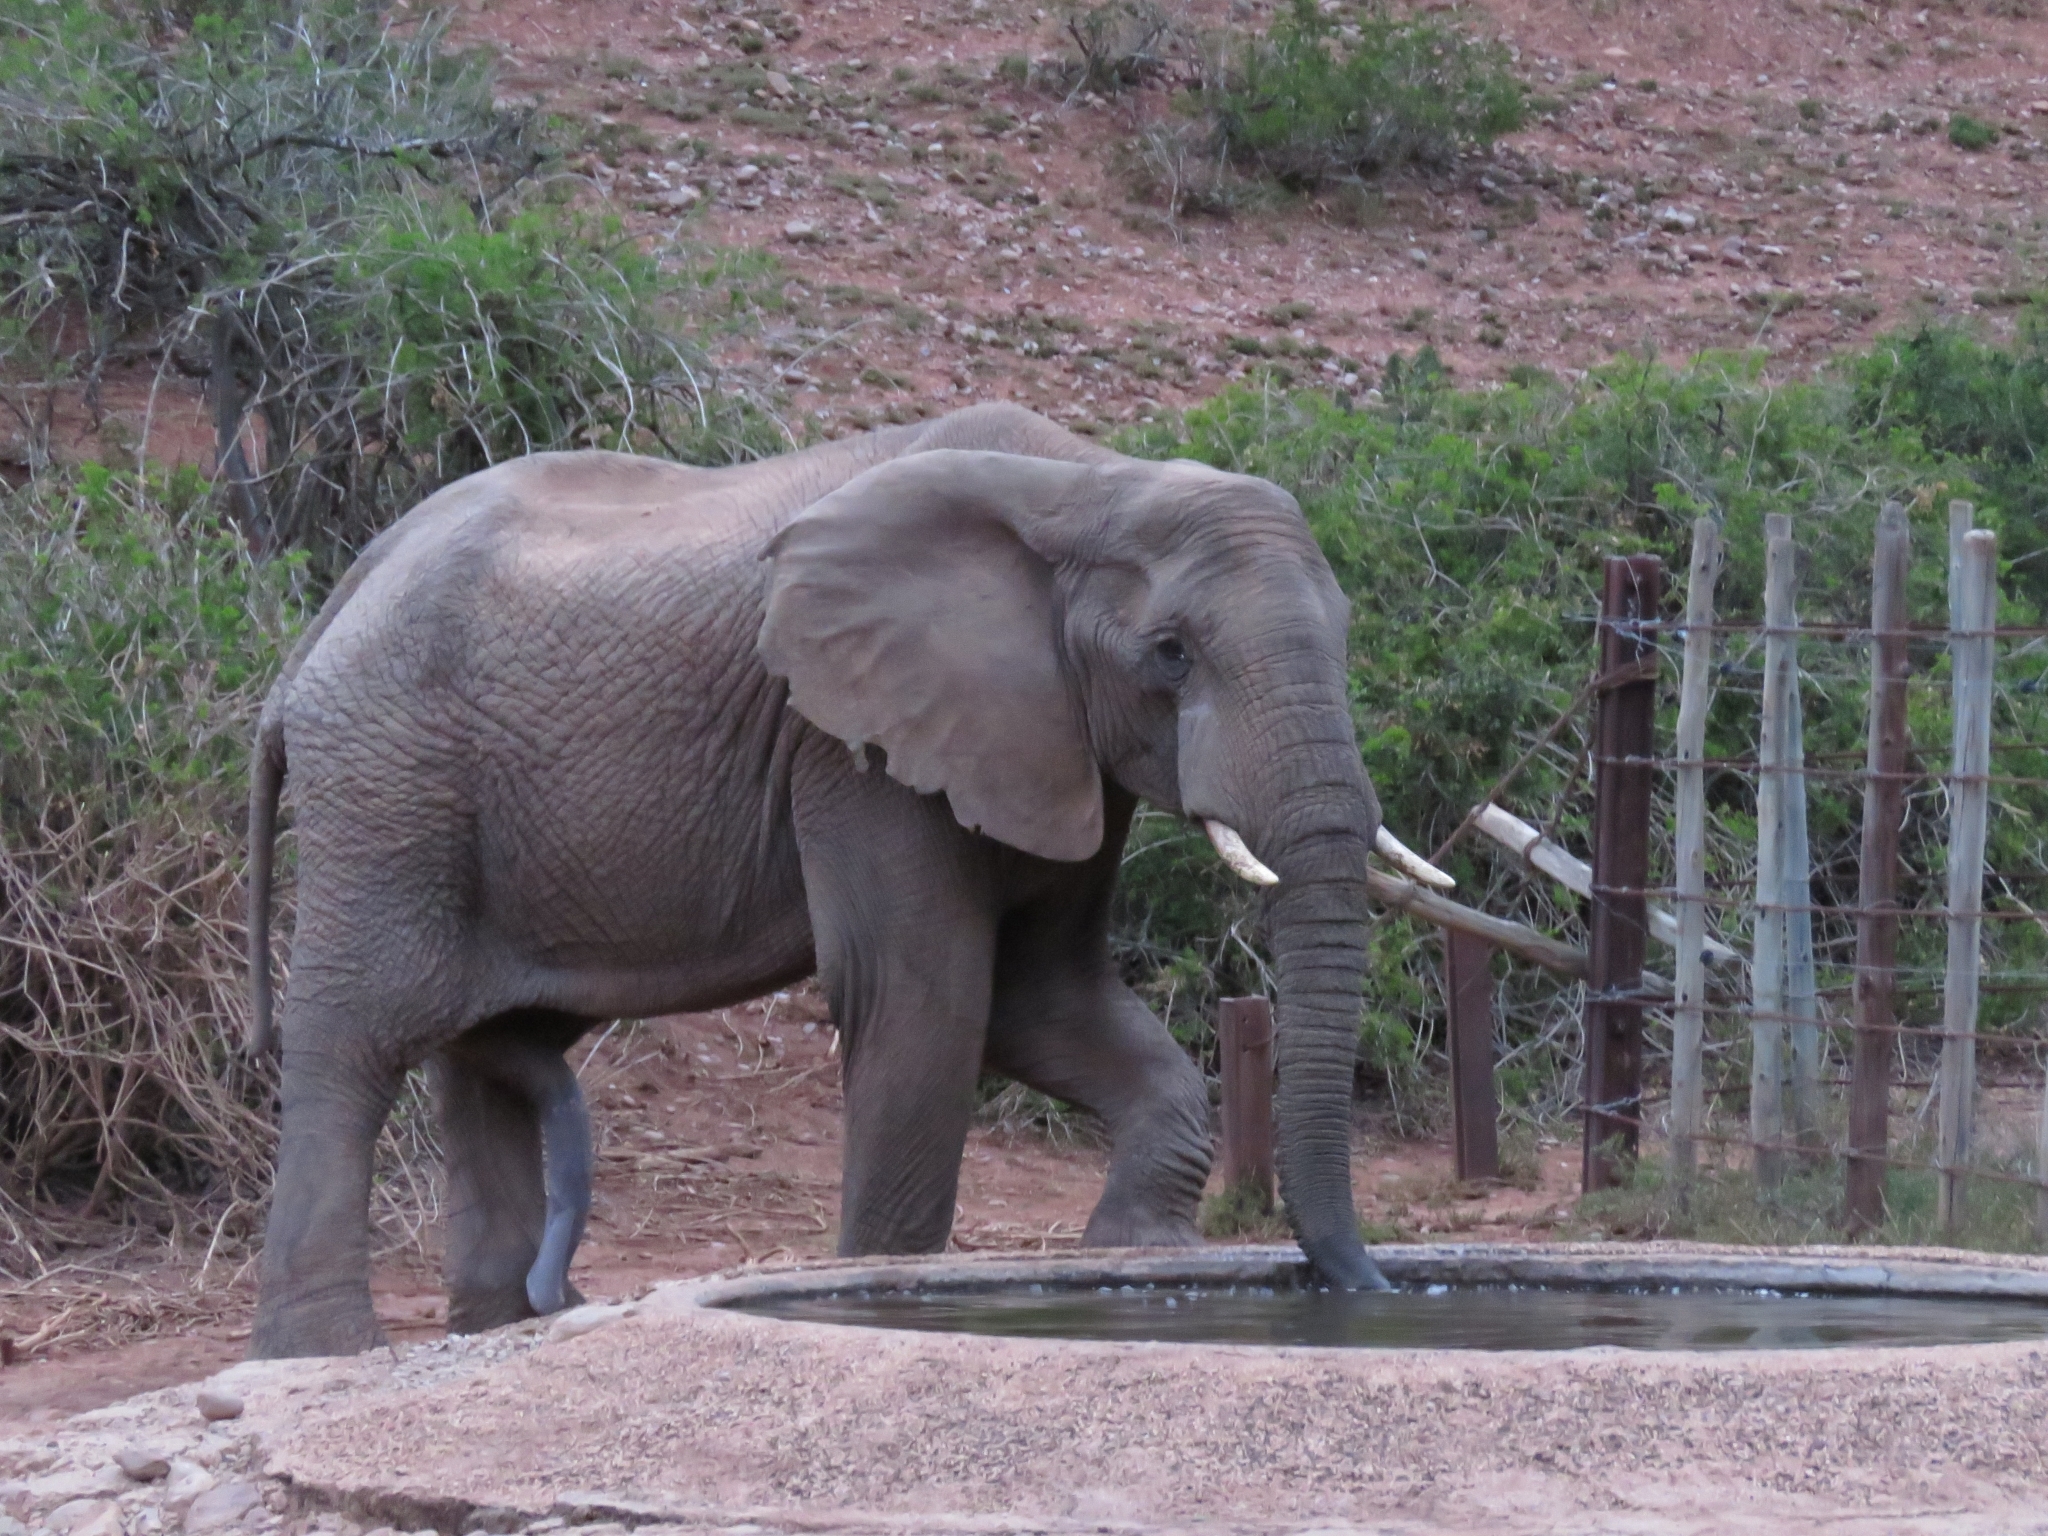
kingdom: Animalia
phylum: Chordata
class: Mammalia
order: Proboscidea
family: Elephantidae
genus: Loxodonta
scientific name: Loxodonta africana
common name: African elephant
